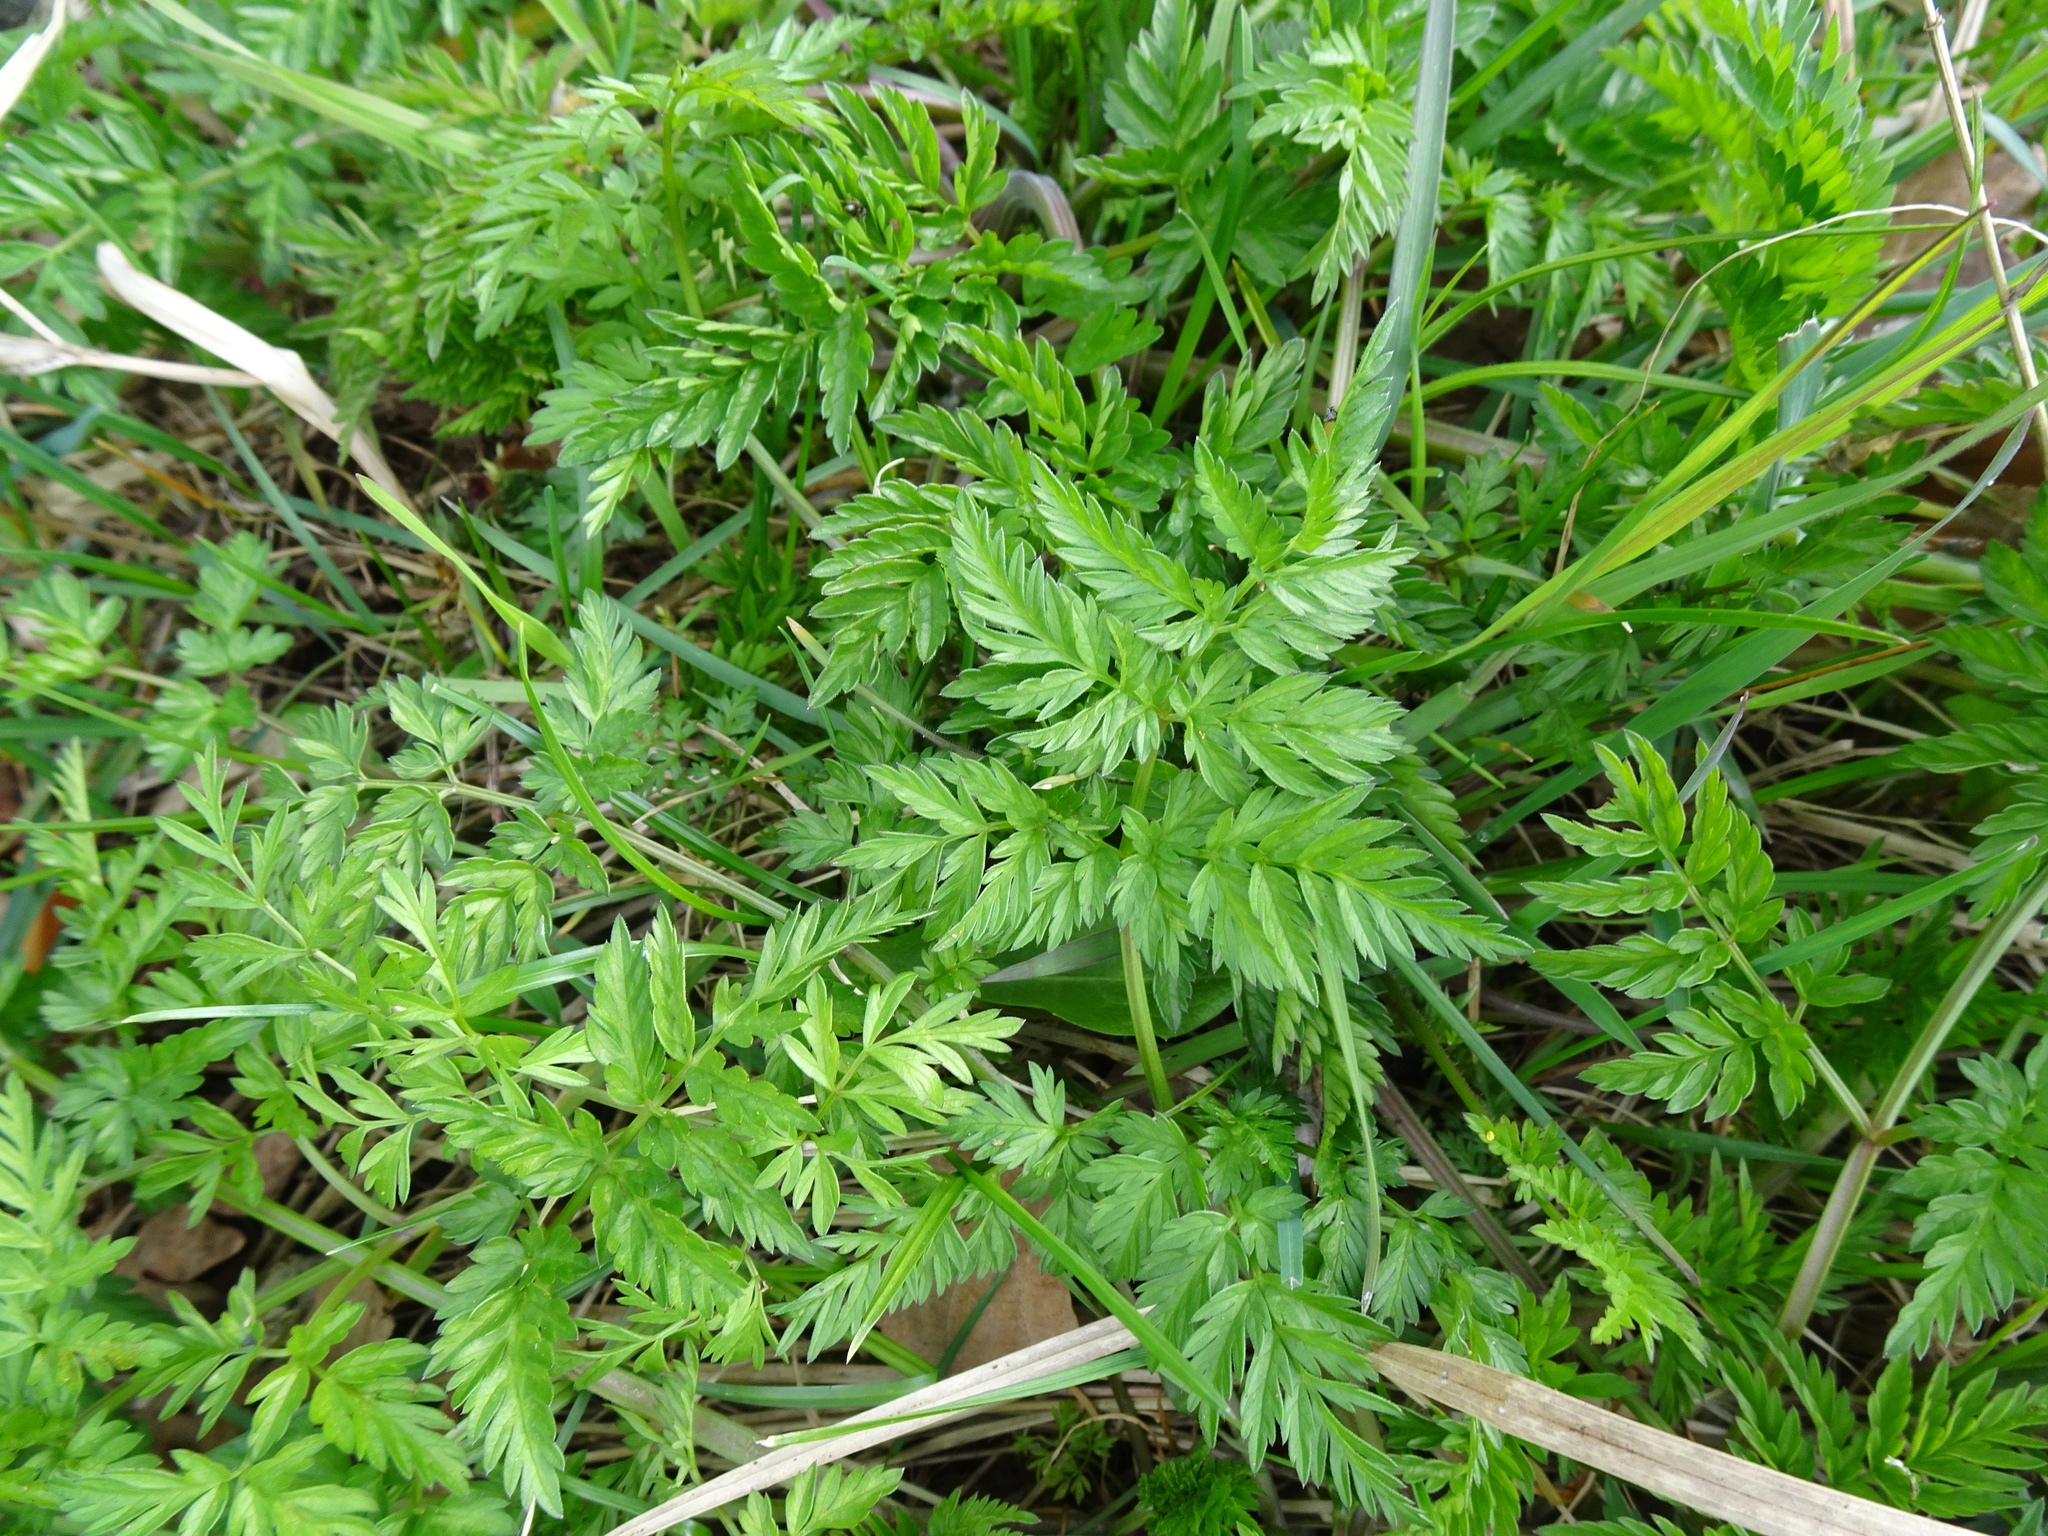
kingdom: Plantae
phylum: Tracheophyta
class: Magnoliopsida
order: Apiales
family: Apiaceae
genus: Anthriscus
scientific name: Anthriscus sylvestris
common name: Cow parsley
